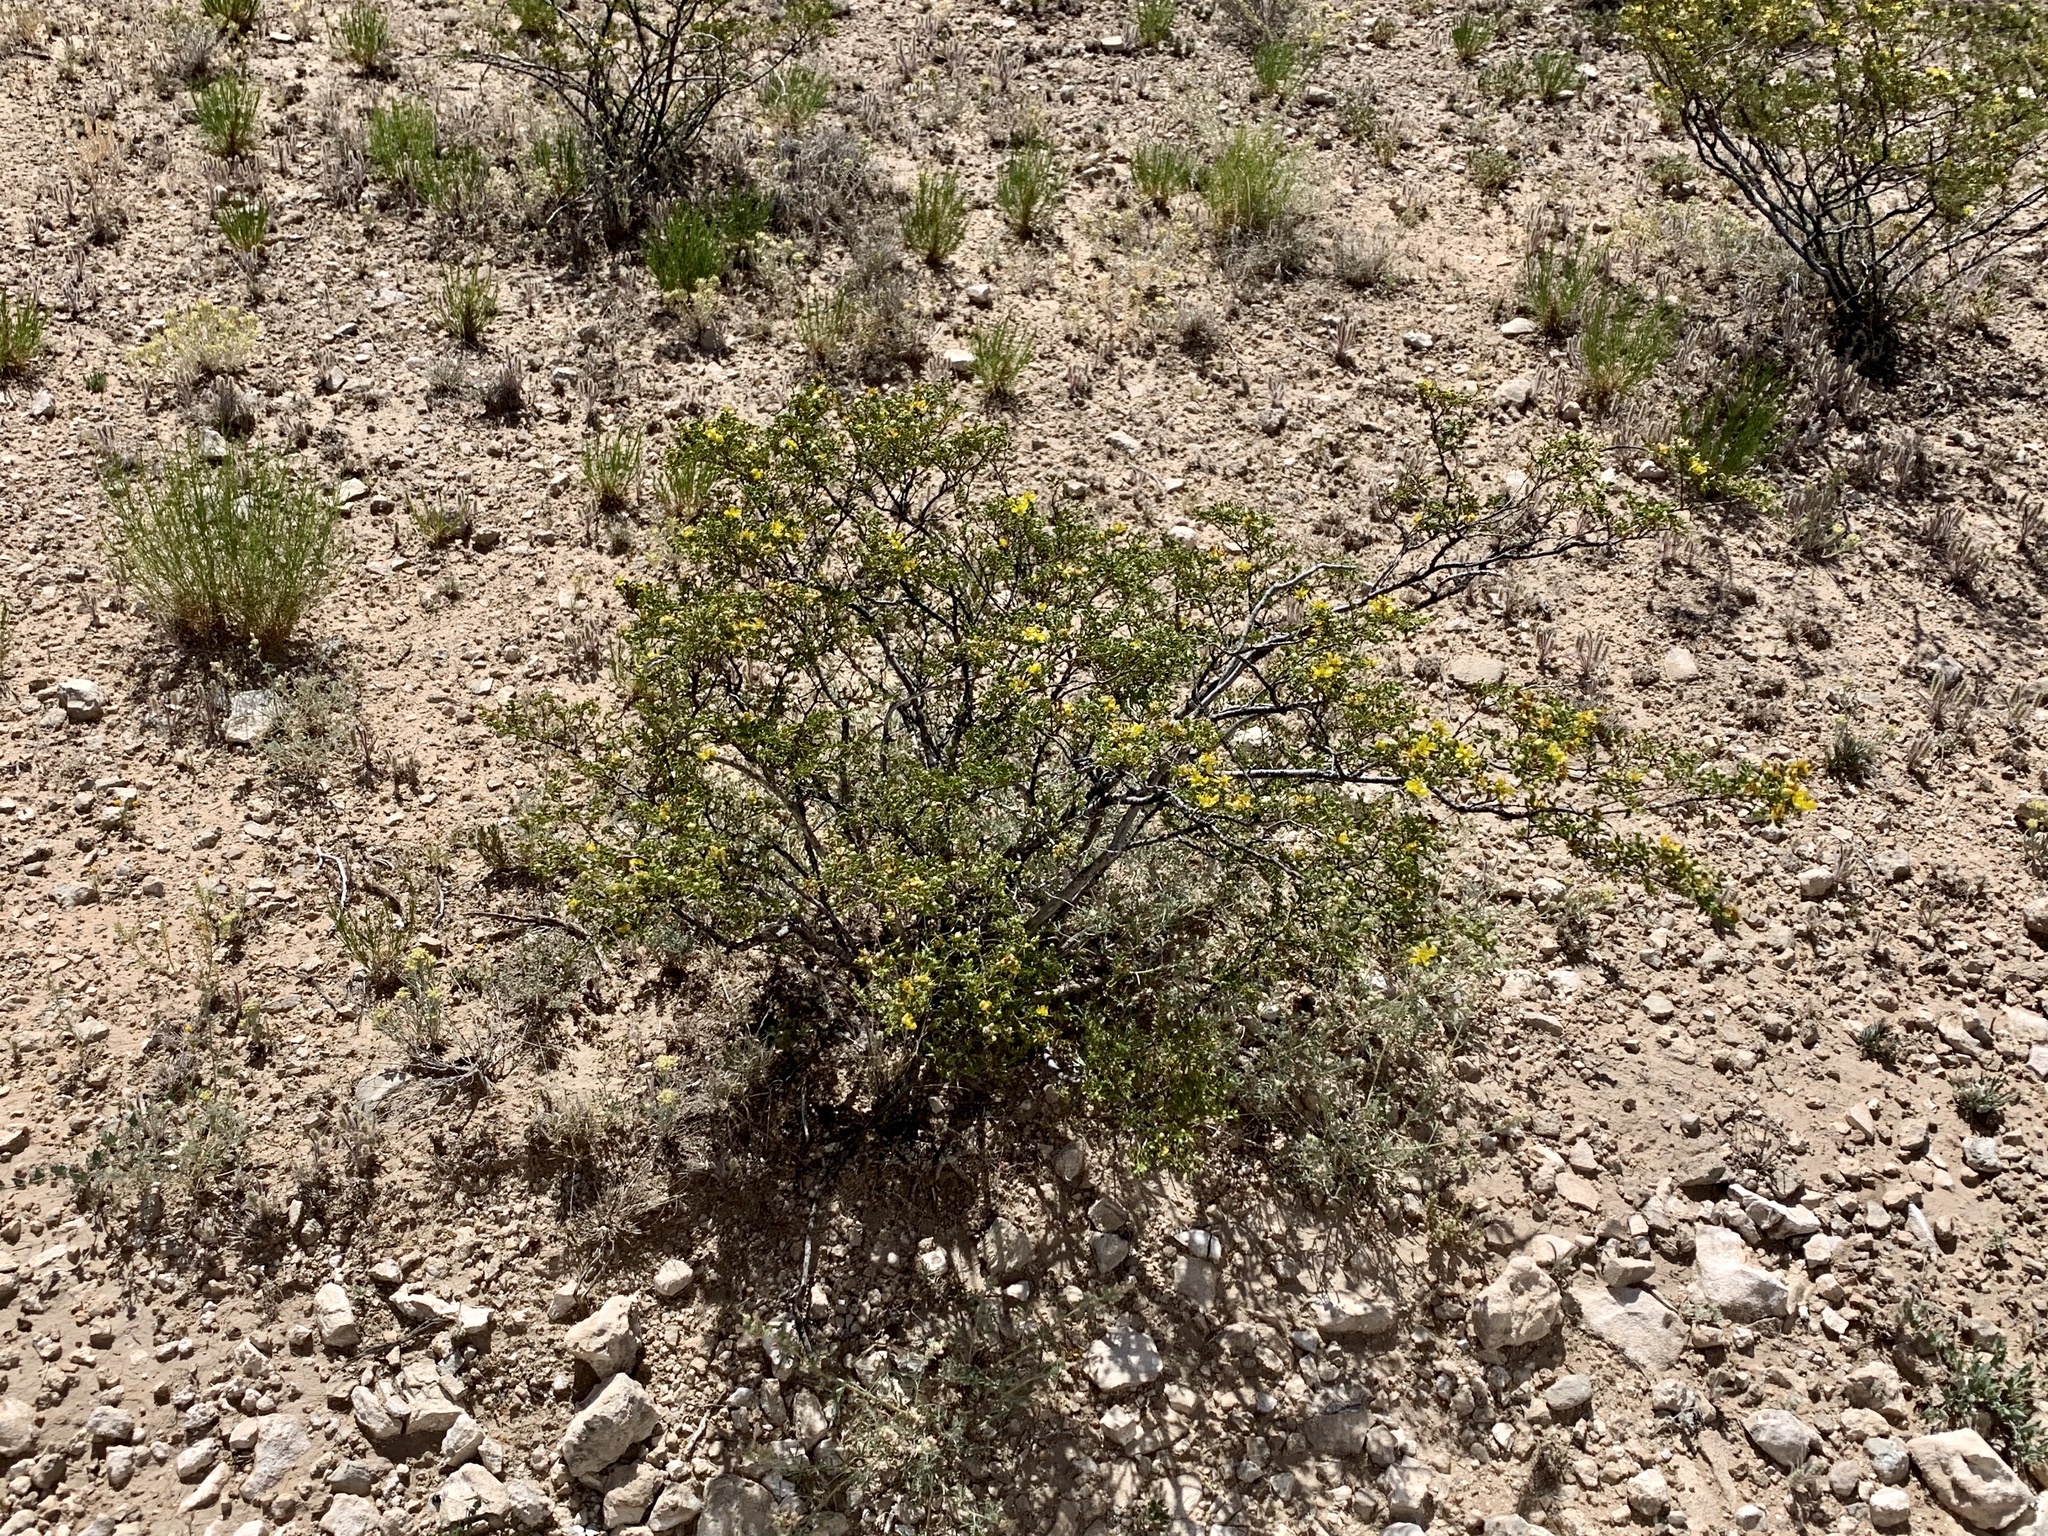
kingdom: Plantae
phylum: Tracheophyta
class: Magnoliopsida
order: Zygophyllales
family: Zygophyllaceae
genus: Larrea
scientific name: Larrea tridentata
